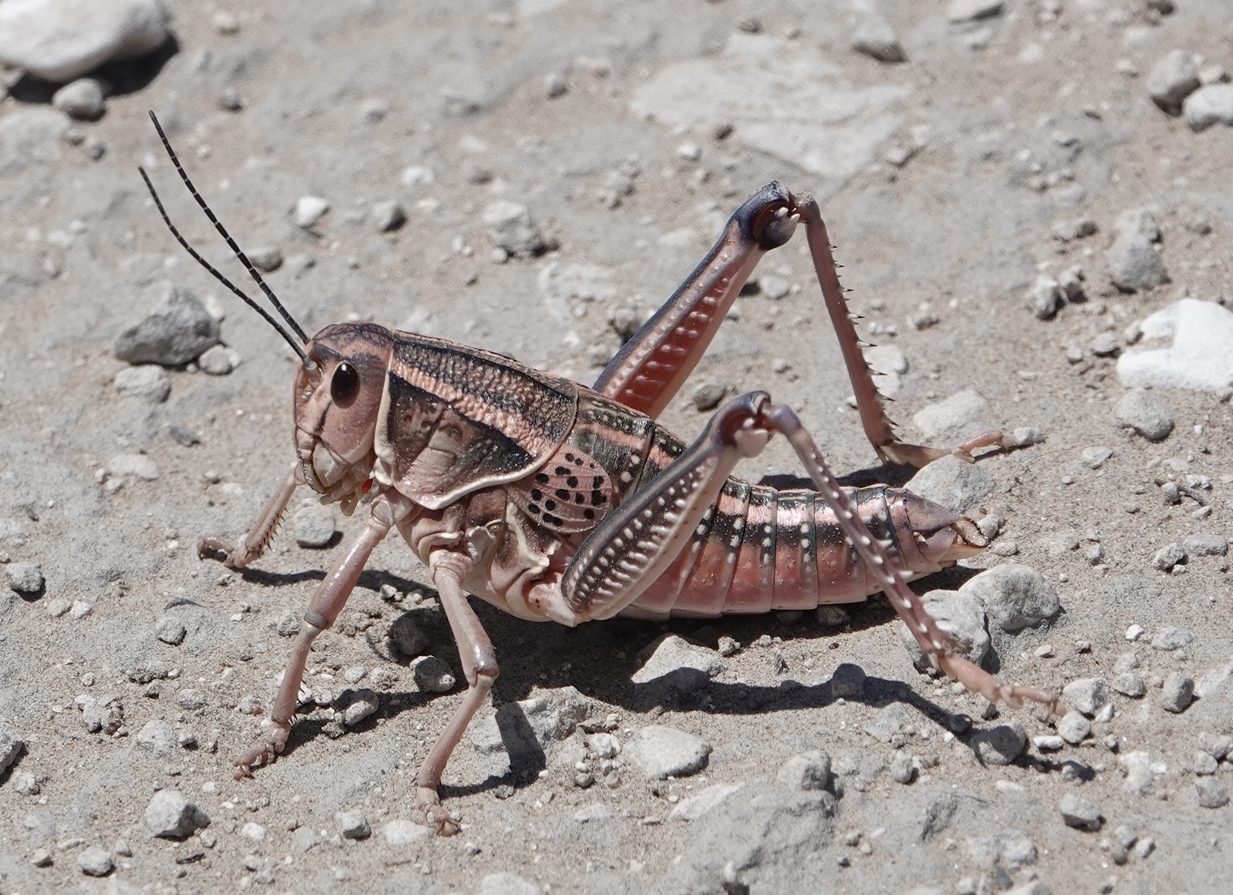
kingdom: Animalia
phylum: Arthropoda
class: Insecta
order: Orthoptera
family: Romaleidae
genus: Brachystola
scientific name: Brachystola magna
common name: Plains lubber grasshopper
